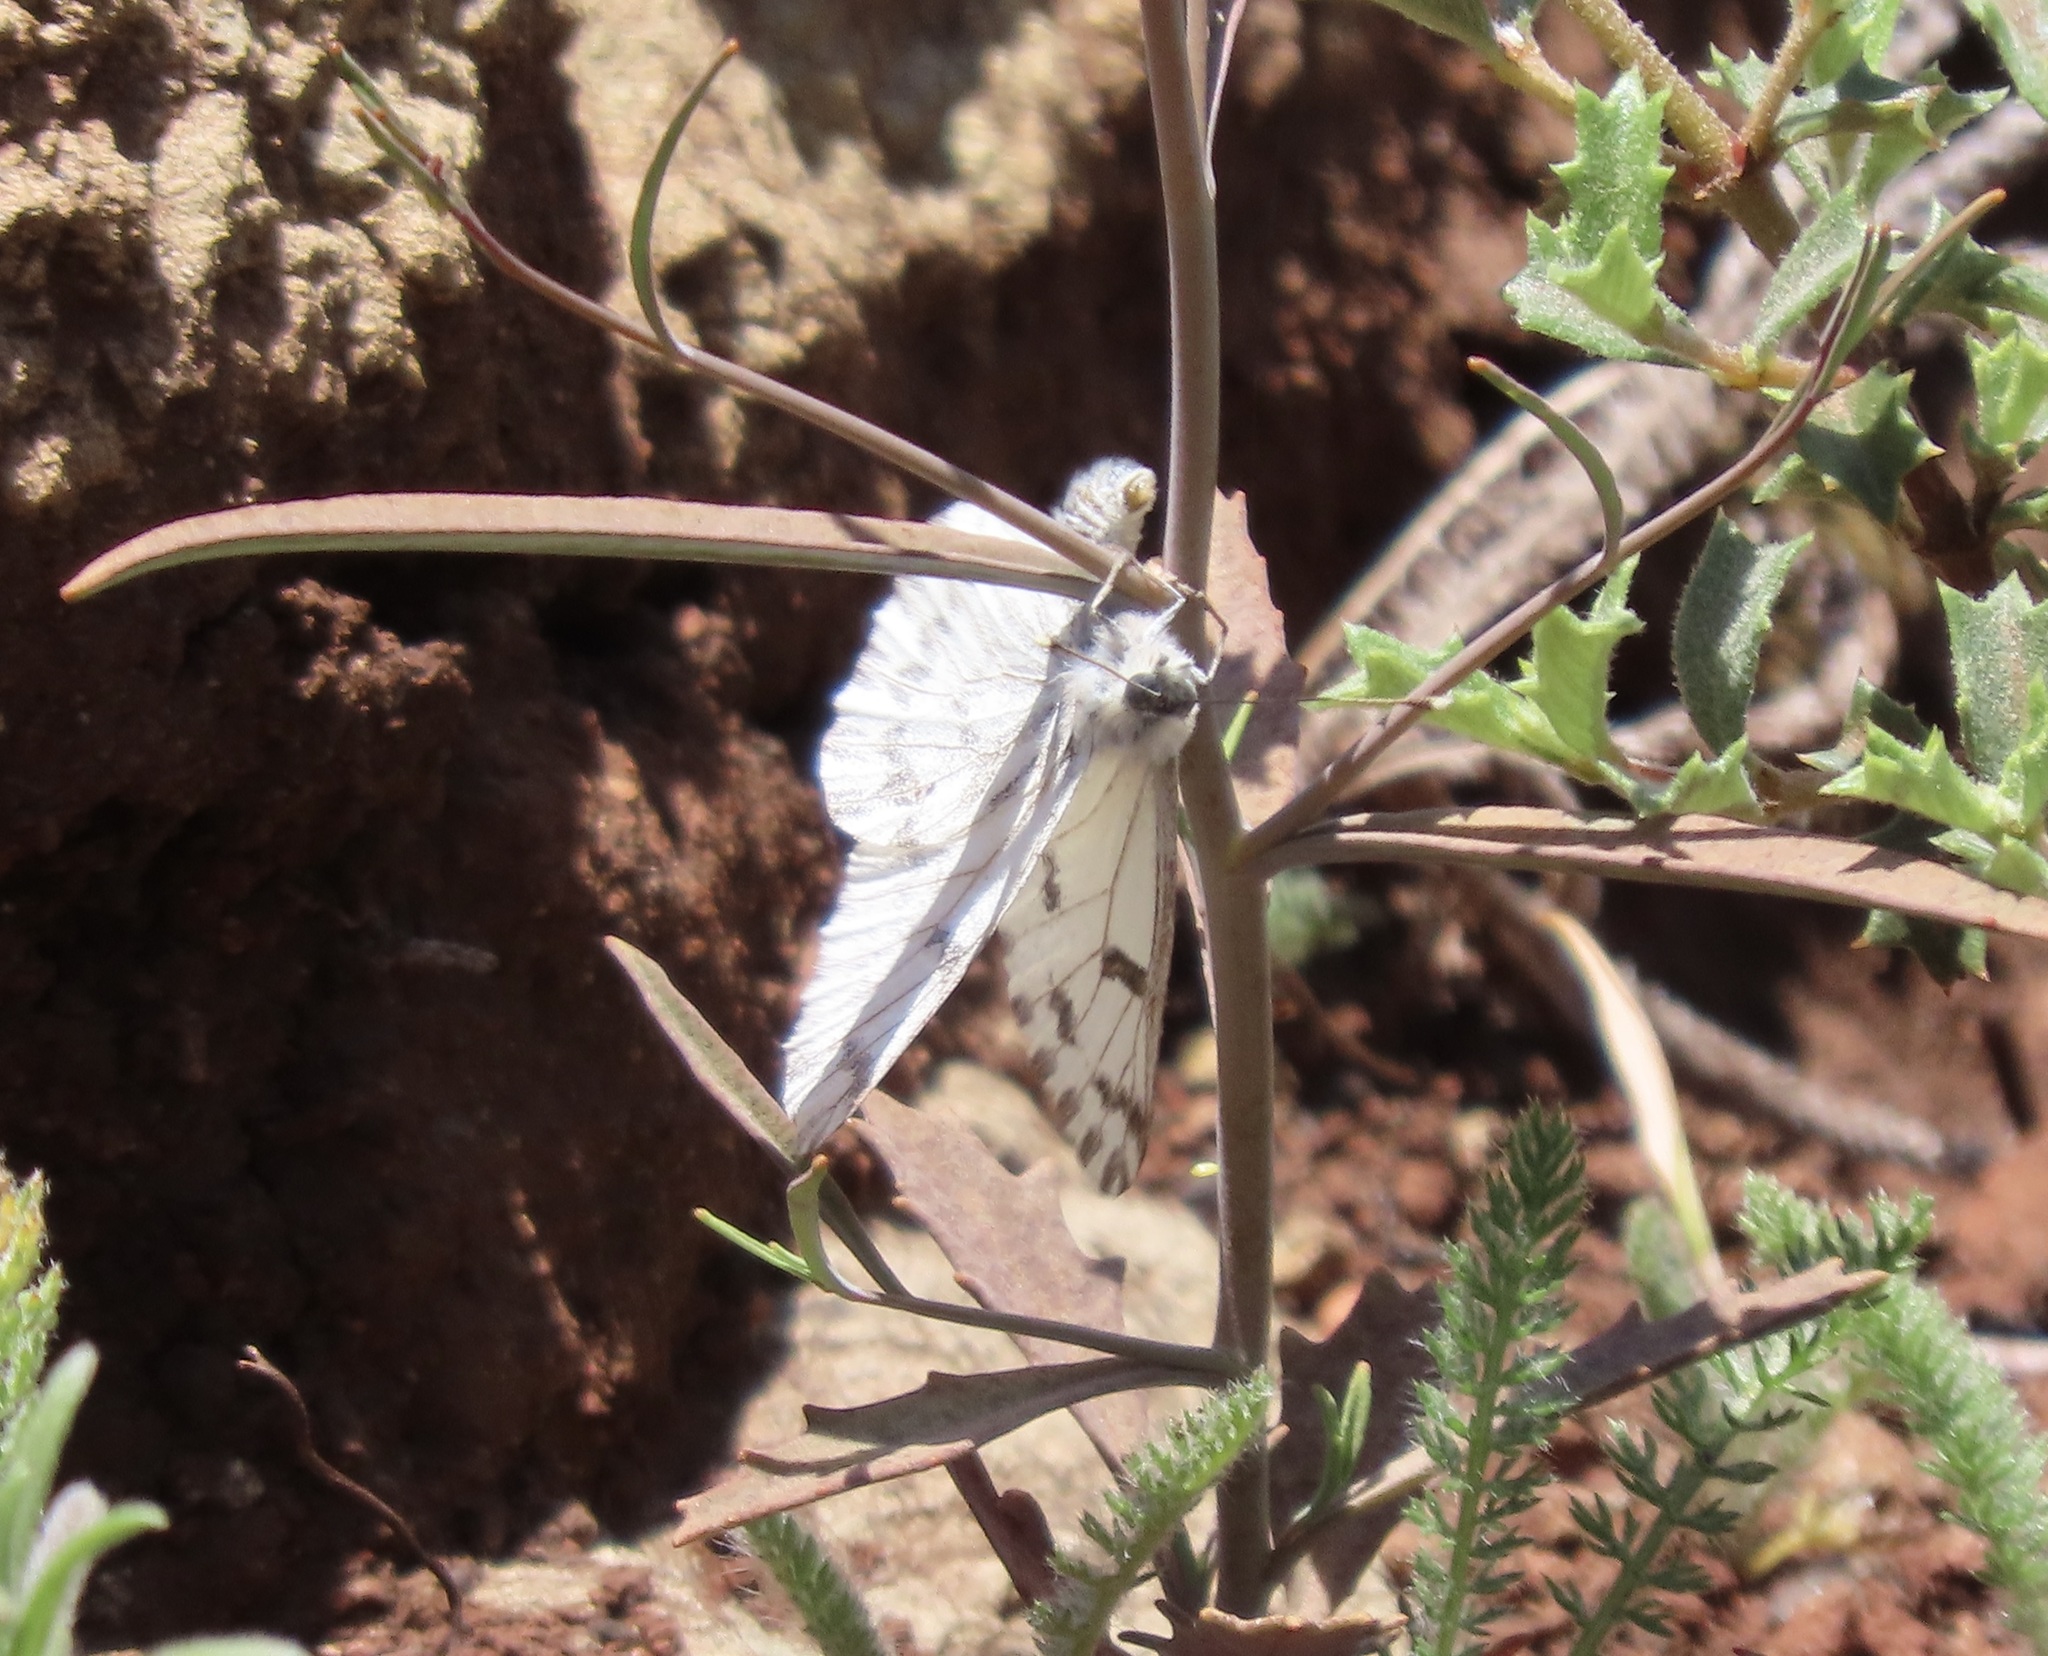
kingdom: Animalia
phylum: Arthropoda
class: Insecta
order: Lepidoptera
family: Pieridae
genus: Pontia
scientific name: Pontia sisymbrii
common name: California white
